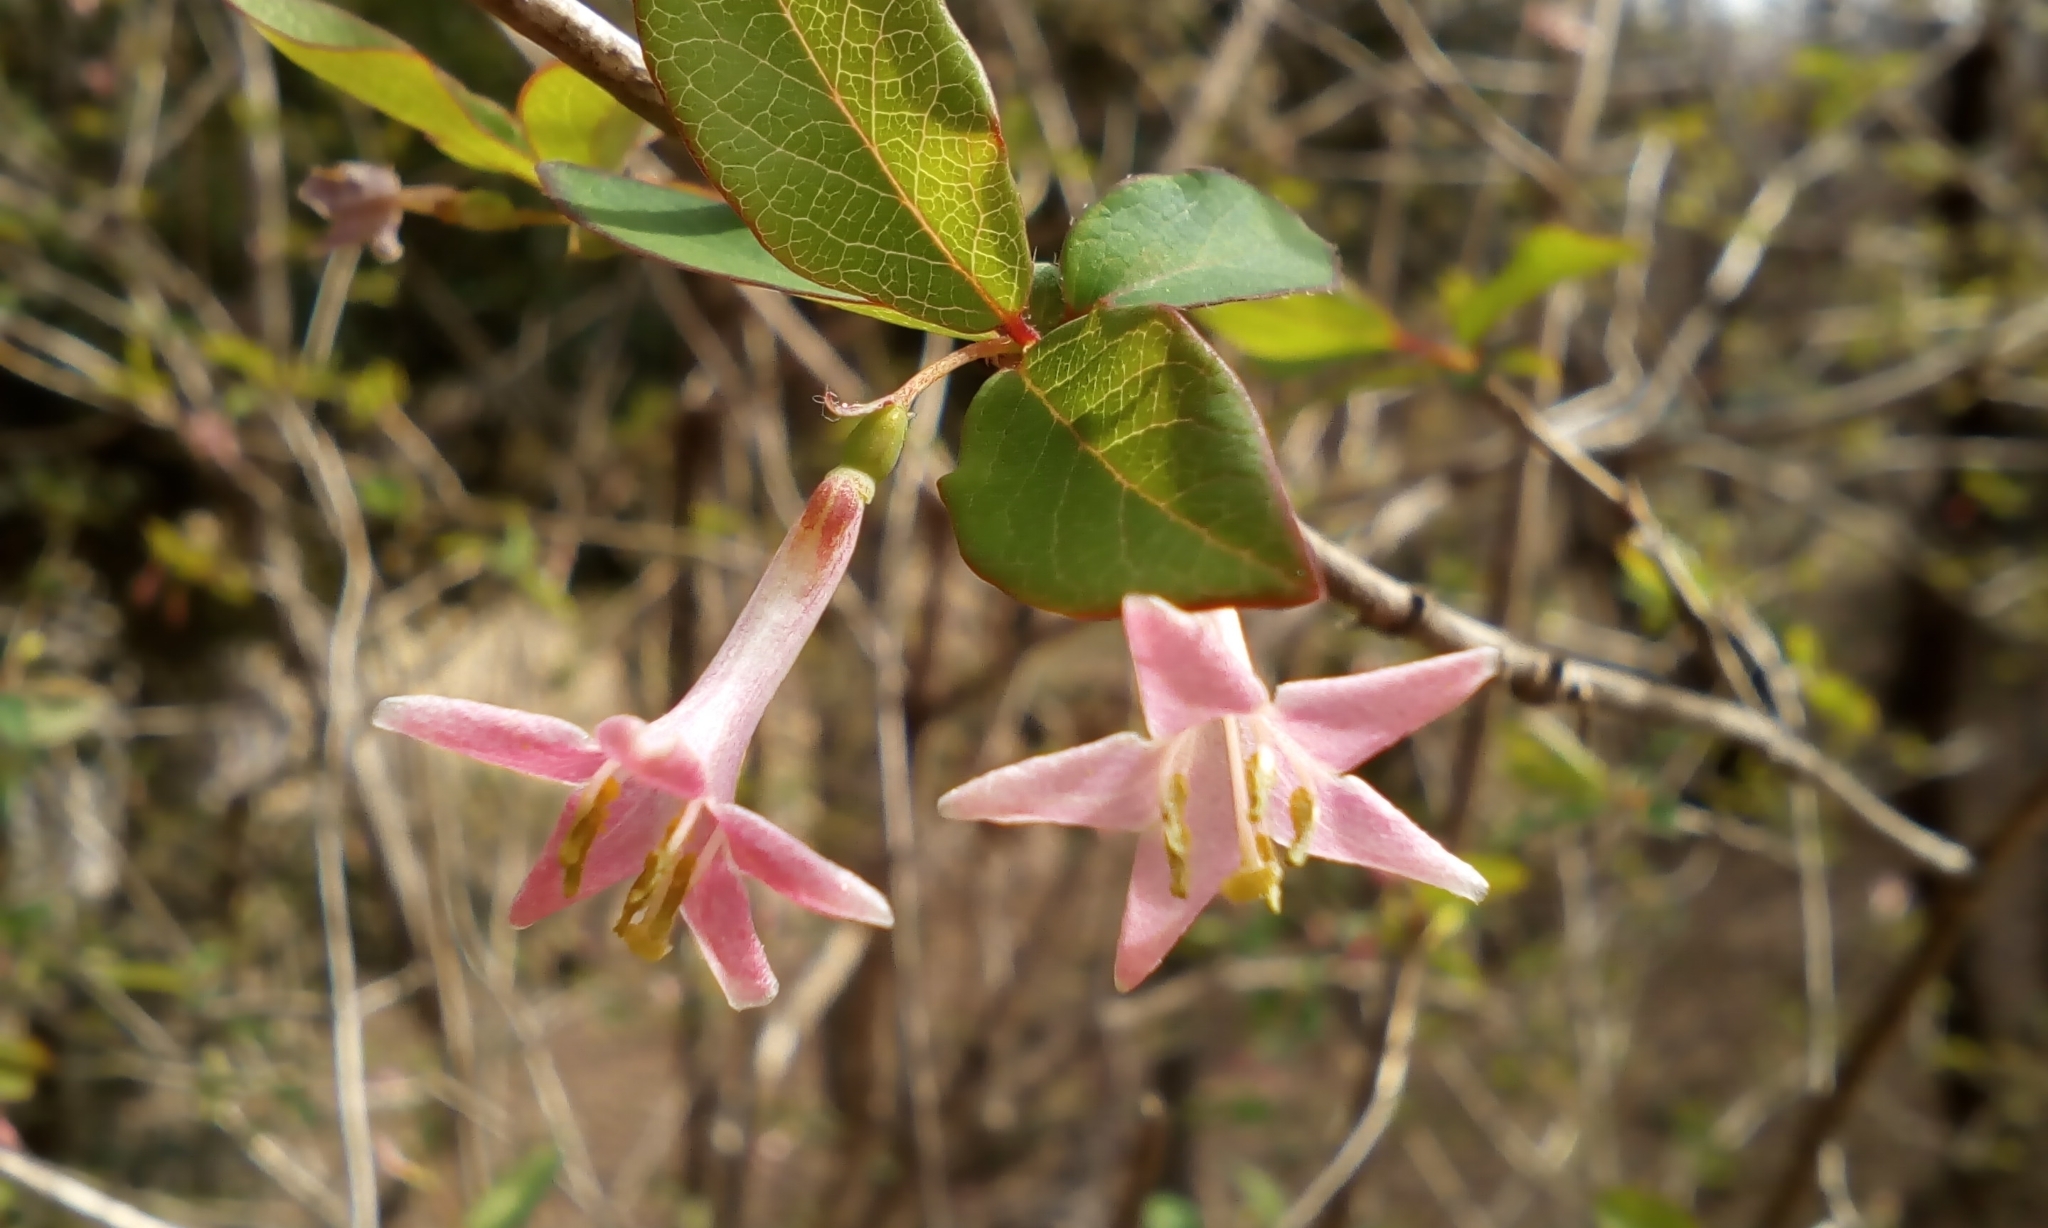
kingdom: Plantae
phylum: Tracheophyta
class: Magnoliopsida
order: Dipsacales
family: Caprifoliaceae
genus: Lonicera
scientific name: Lonicera gracilipes
